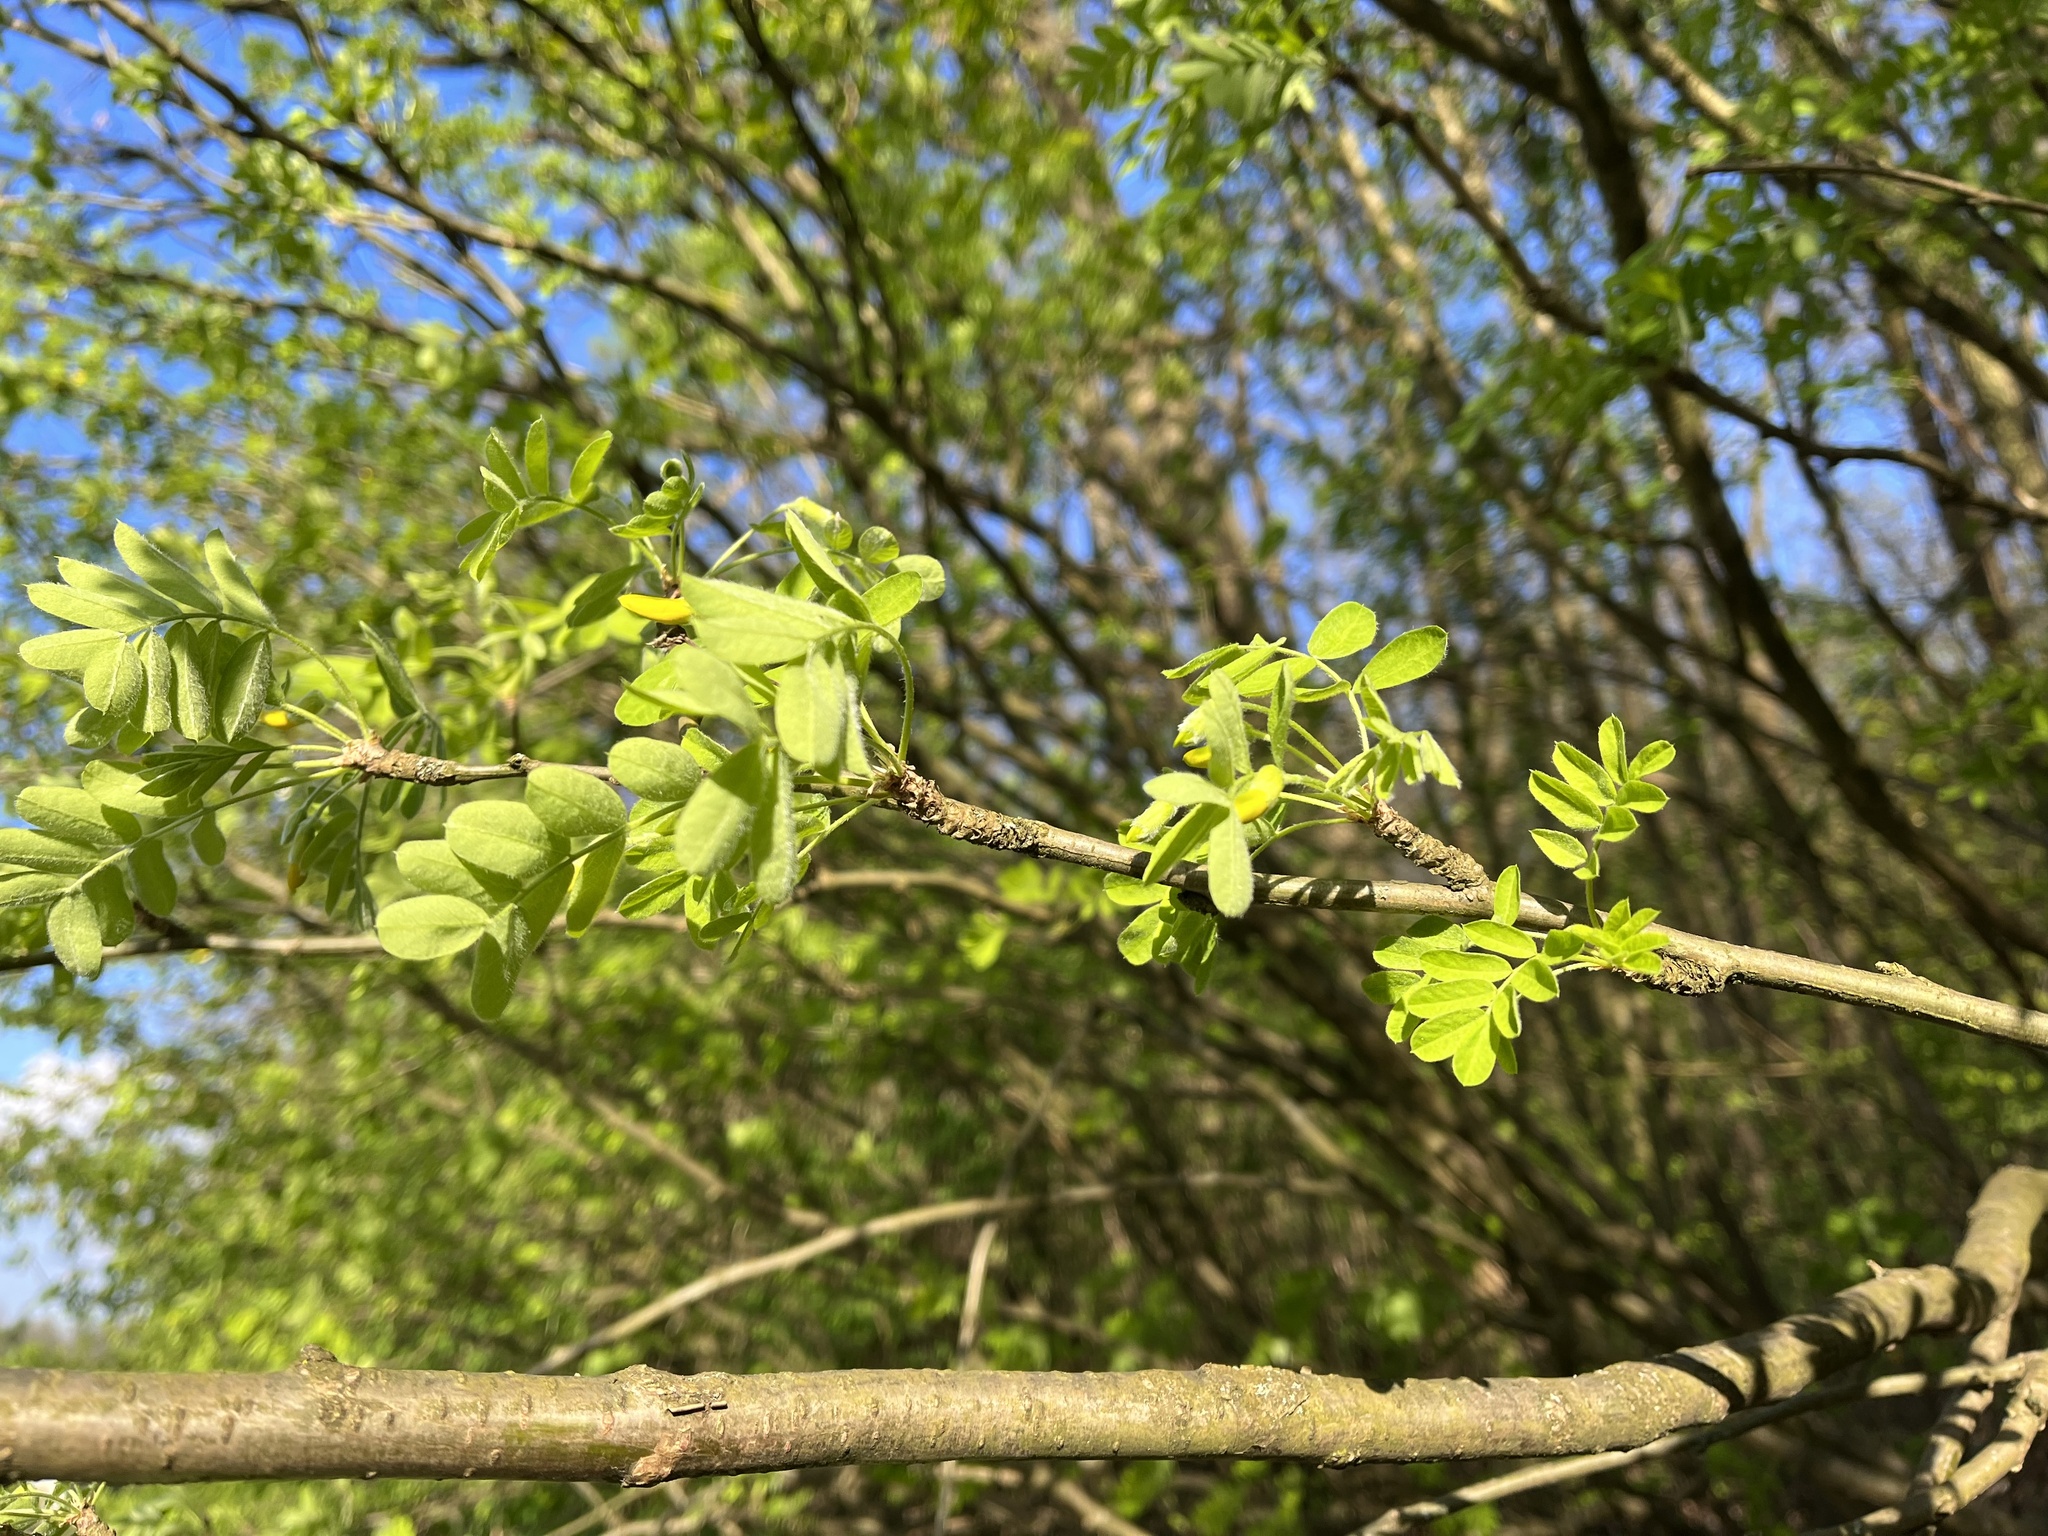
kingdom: Plantae
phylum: Tracheophyta
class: Magnoliopsida
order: Fabales
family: Fabaceae
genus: Caragana
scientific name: Caragana arborescens
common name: Siberian peashrub
